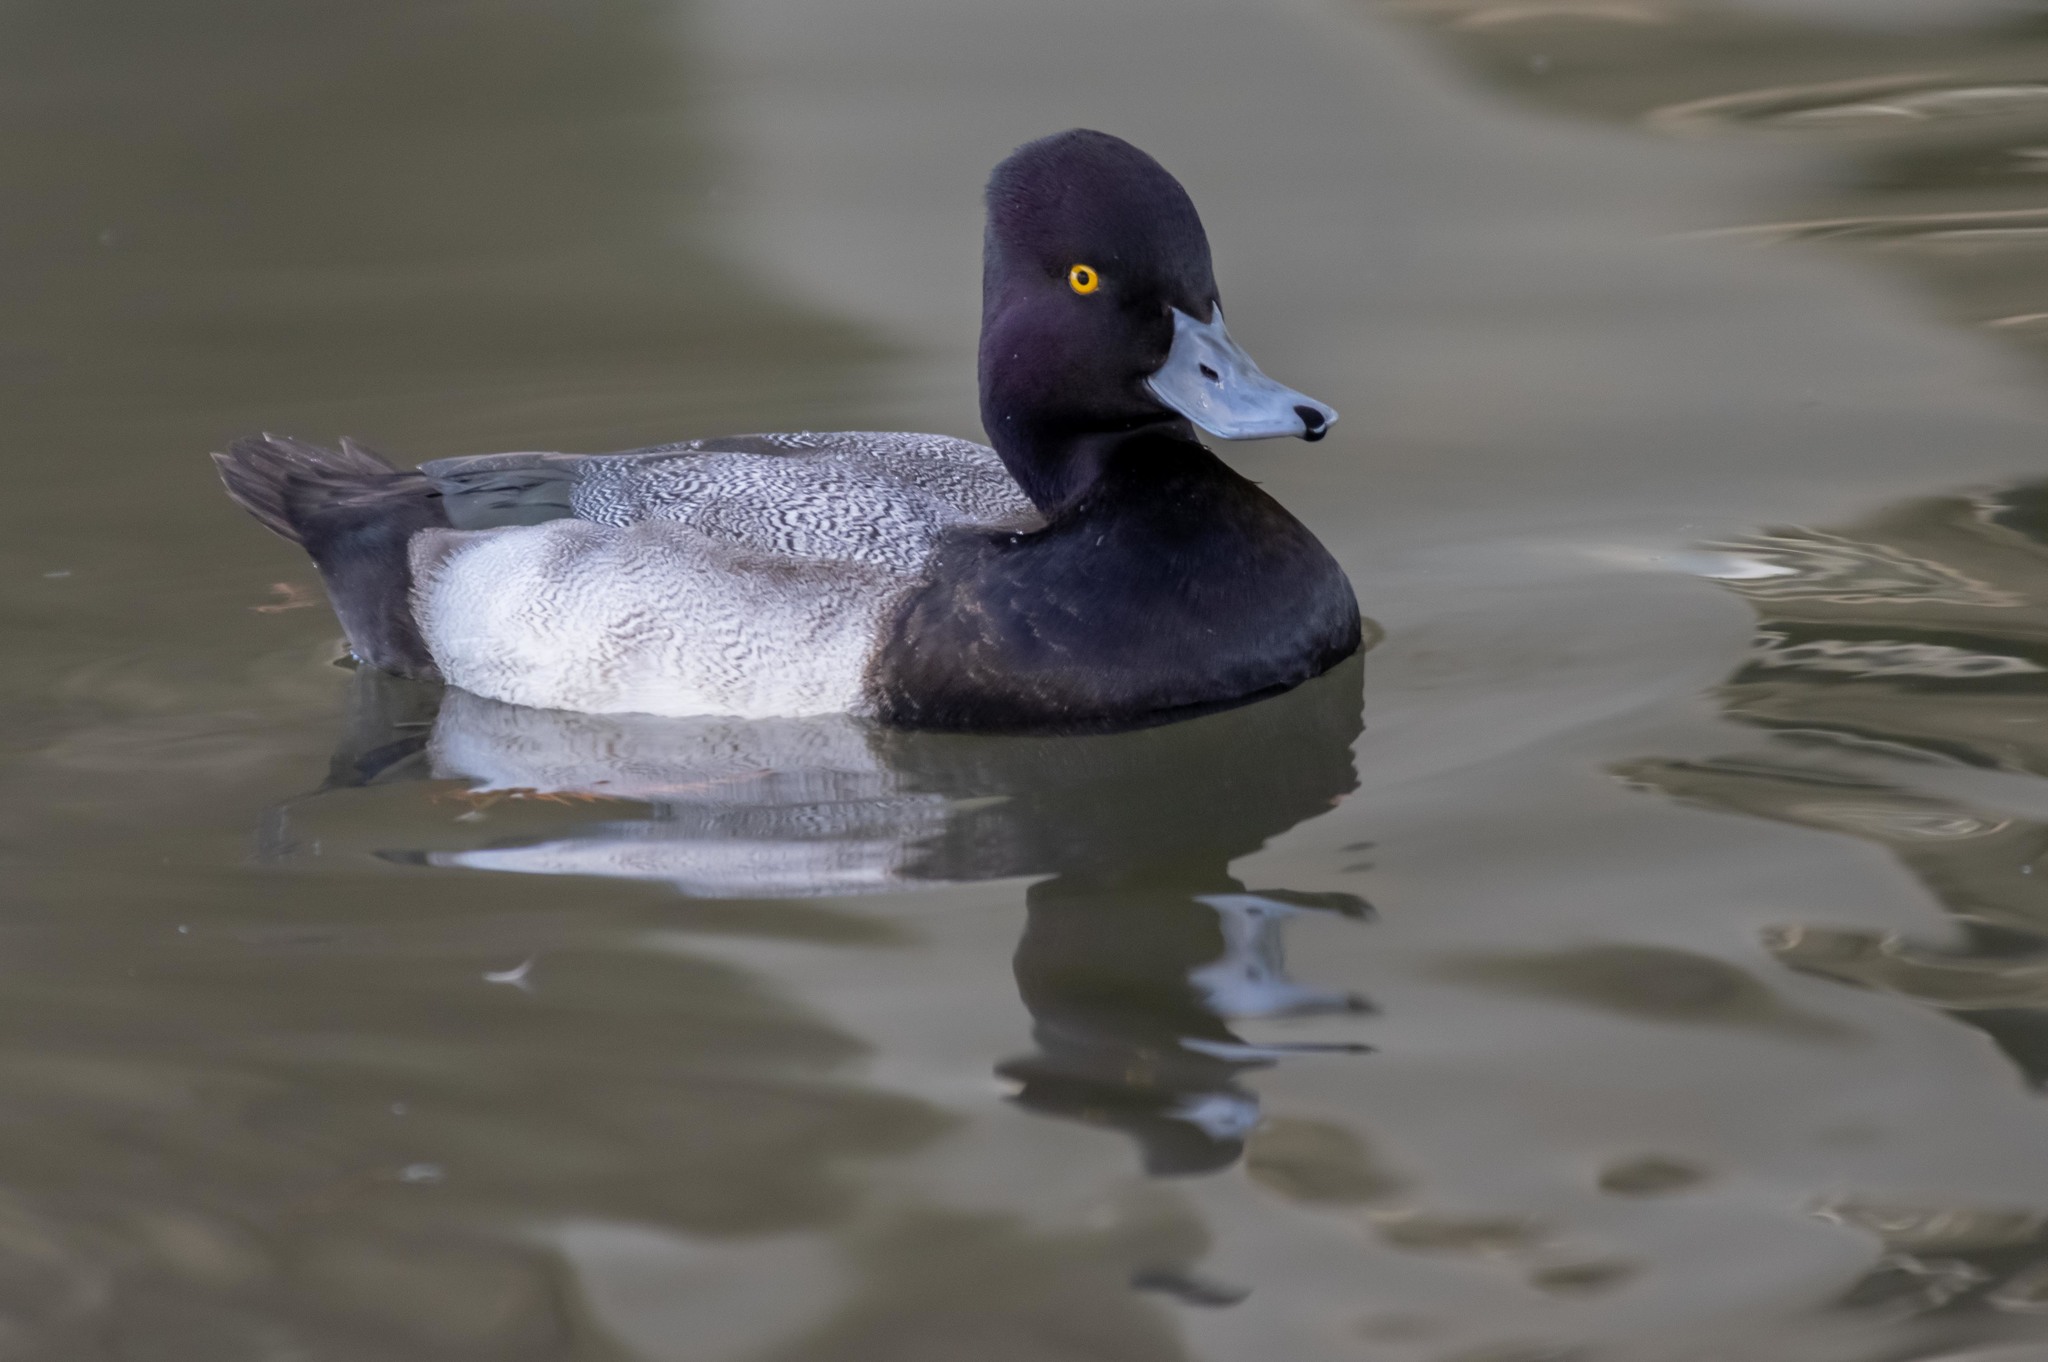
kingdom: Animalia
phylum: Chordata
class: Aves
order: Anseriformes
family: Anatidae
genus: Aythya
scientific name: Aythya affinis
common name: Lesser scaup
